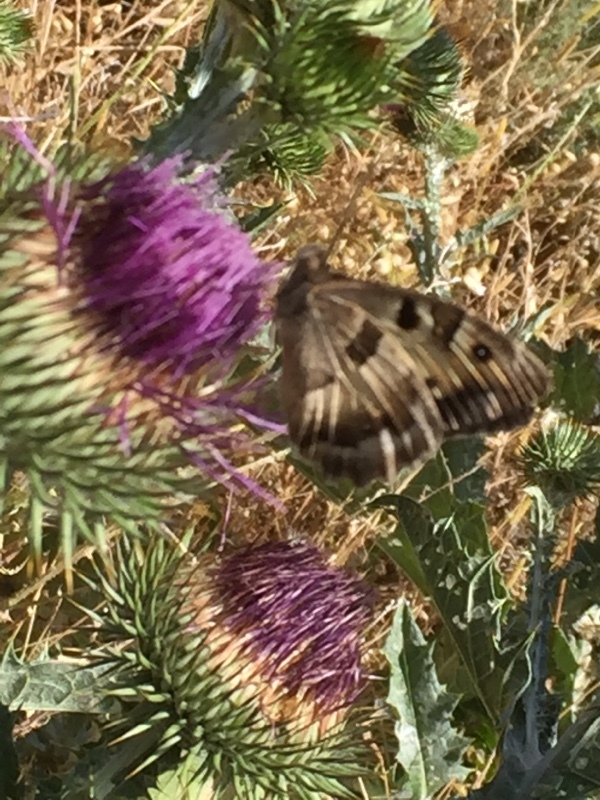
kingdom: Animalia
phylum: Arthropoda
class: Insecta
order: Lepidoptera
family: Nymphalidae
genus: Satyrus
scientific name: Satyrus briseis
